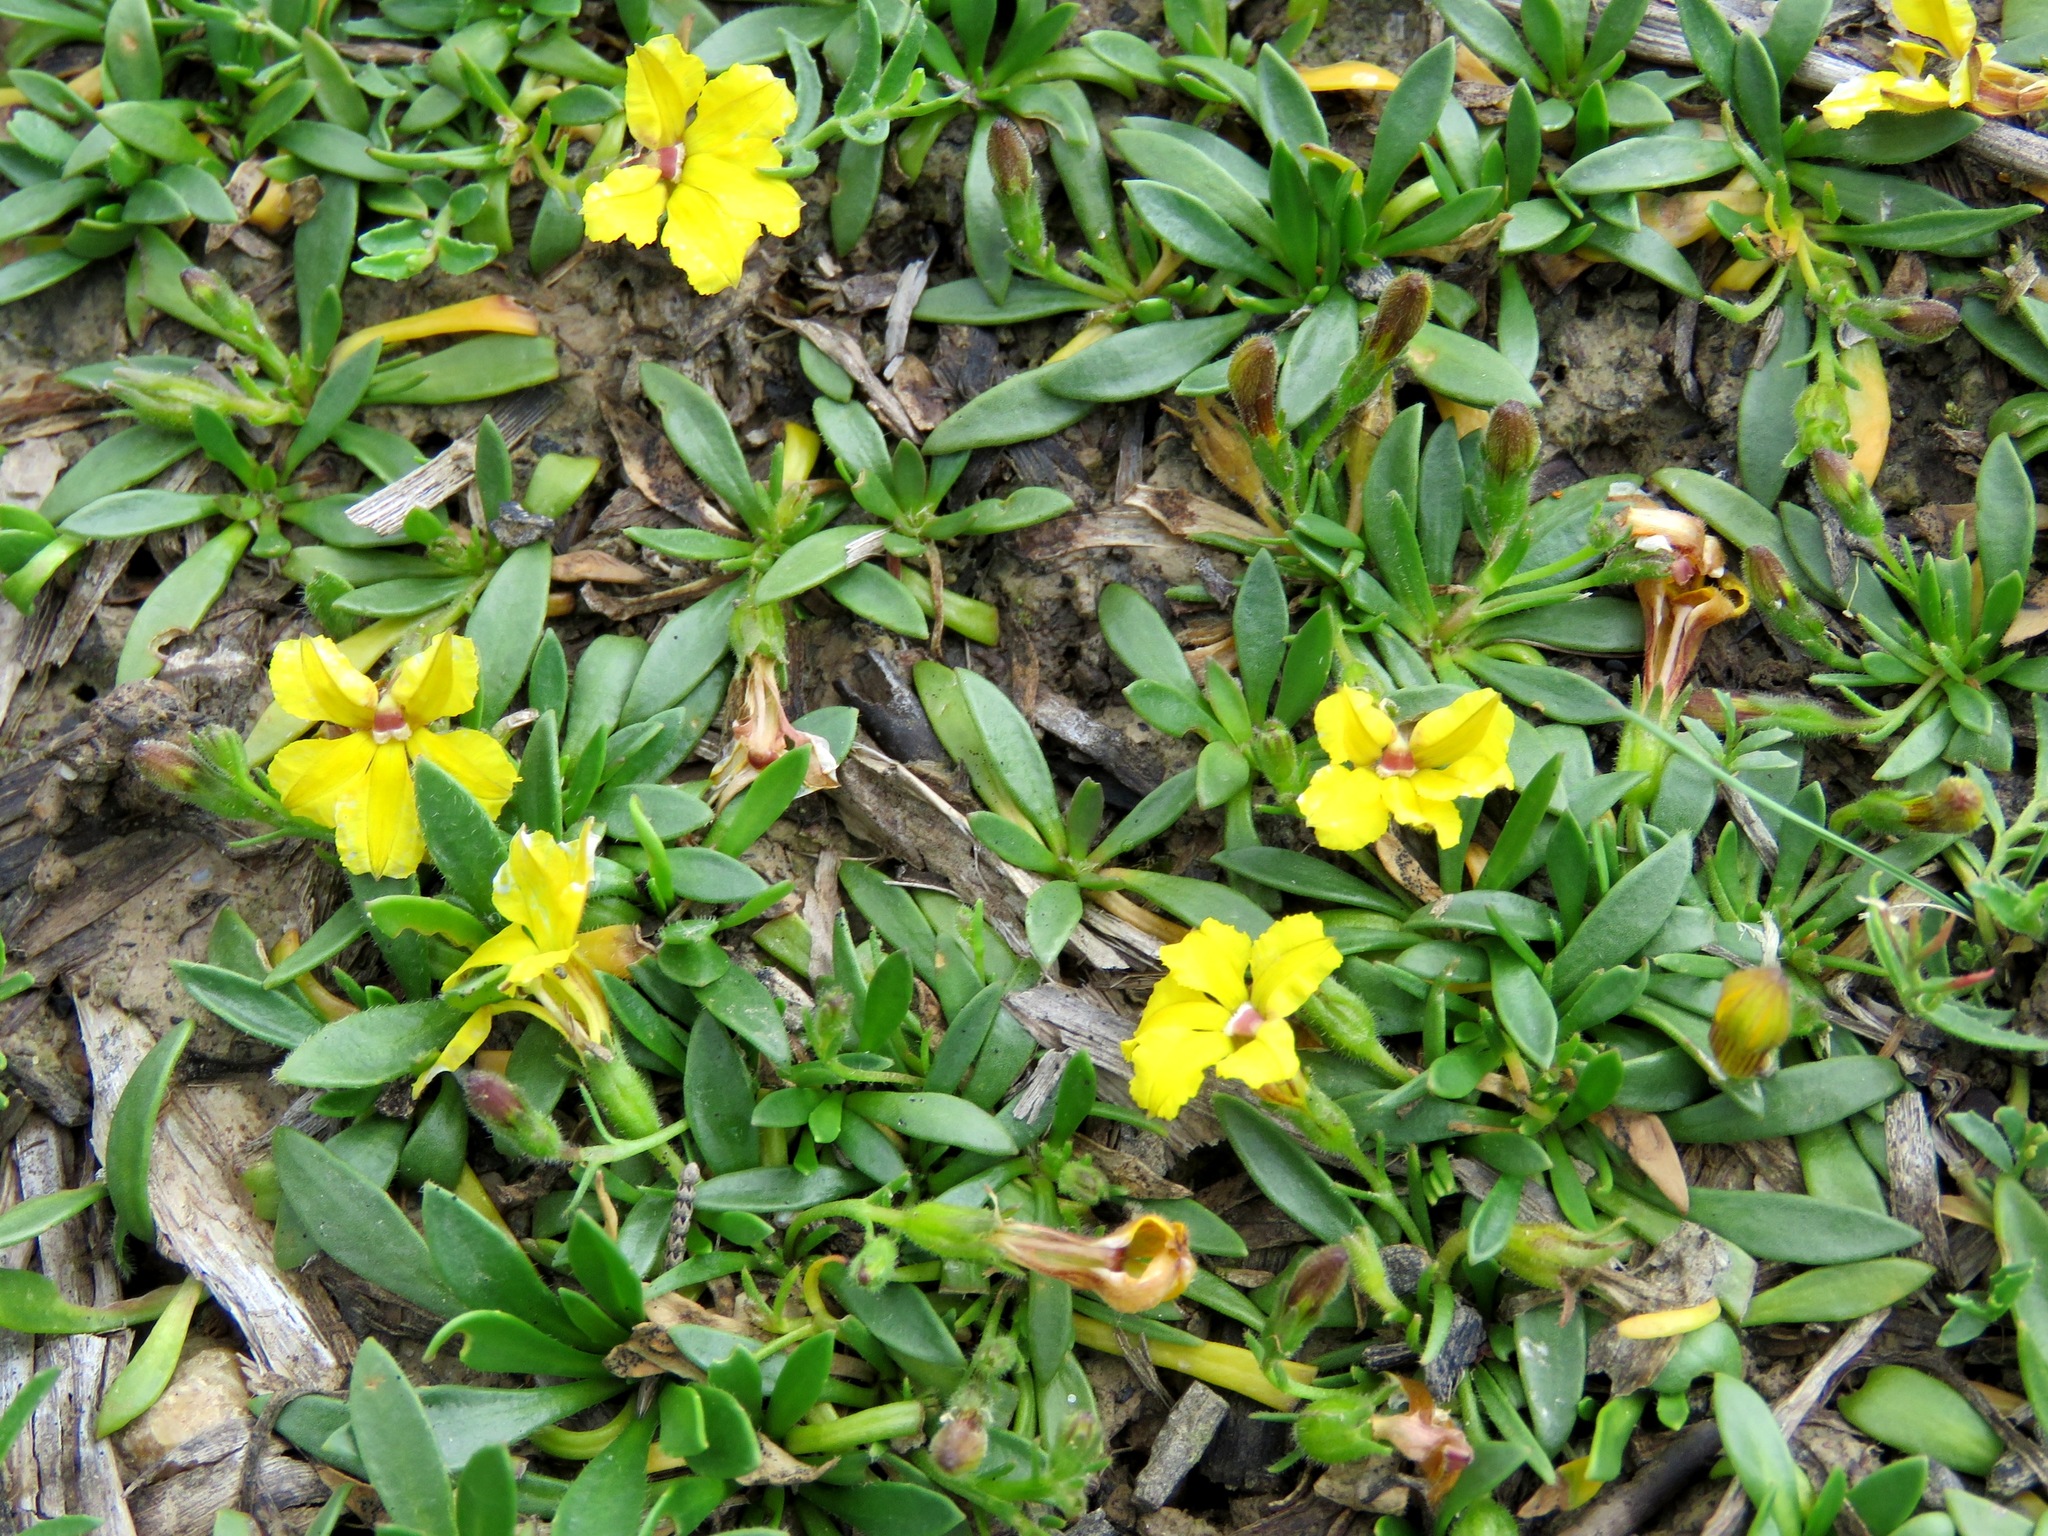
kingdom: Plantae
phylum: Tracheophyta
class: Magnoliopsida
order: Asterales
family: Goodeniaceae
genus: Goodenia
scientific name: Goodenia humilis
